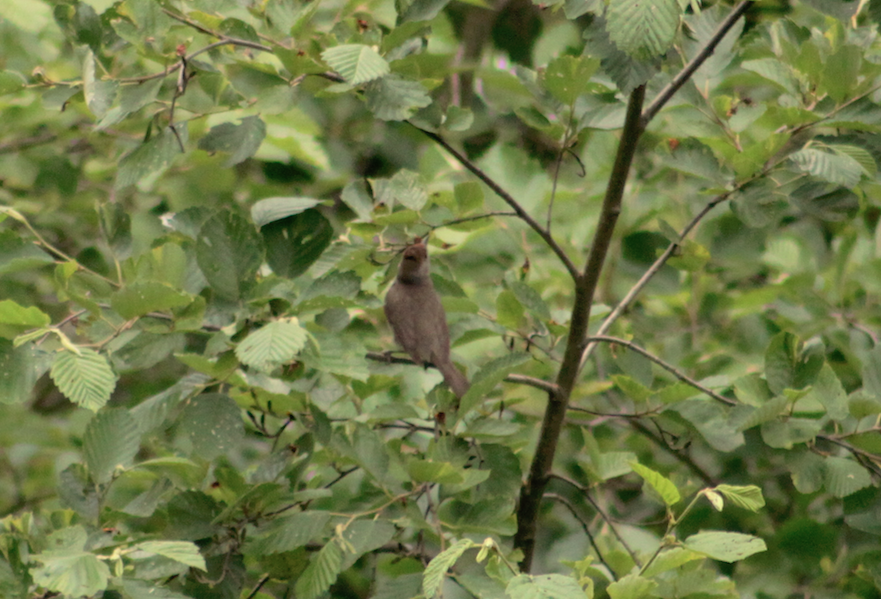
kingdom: Animalia
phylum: Chordata
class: Aves
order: Passeriformes
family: Sylviidae
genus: Sylvia
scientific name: Sylvia atricapilla
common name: Eurasian blackcap
